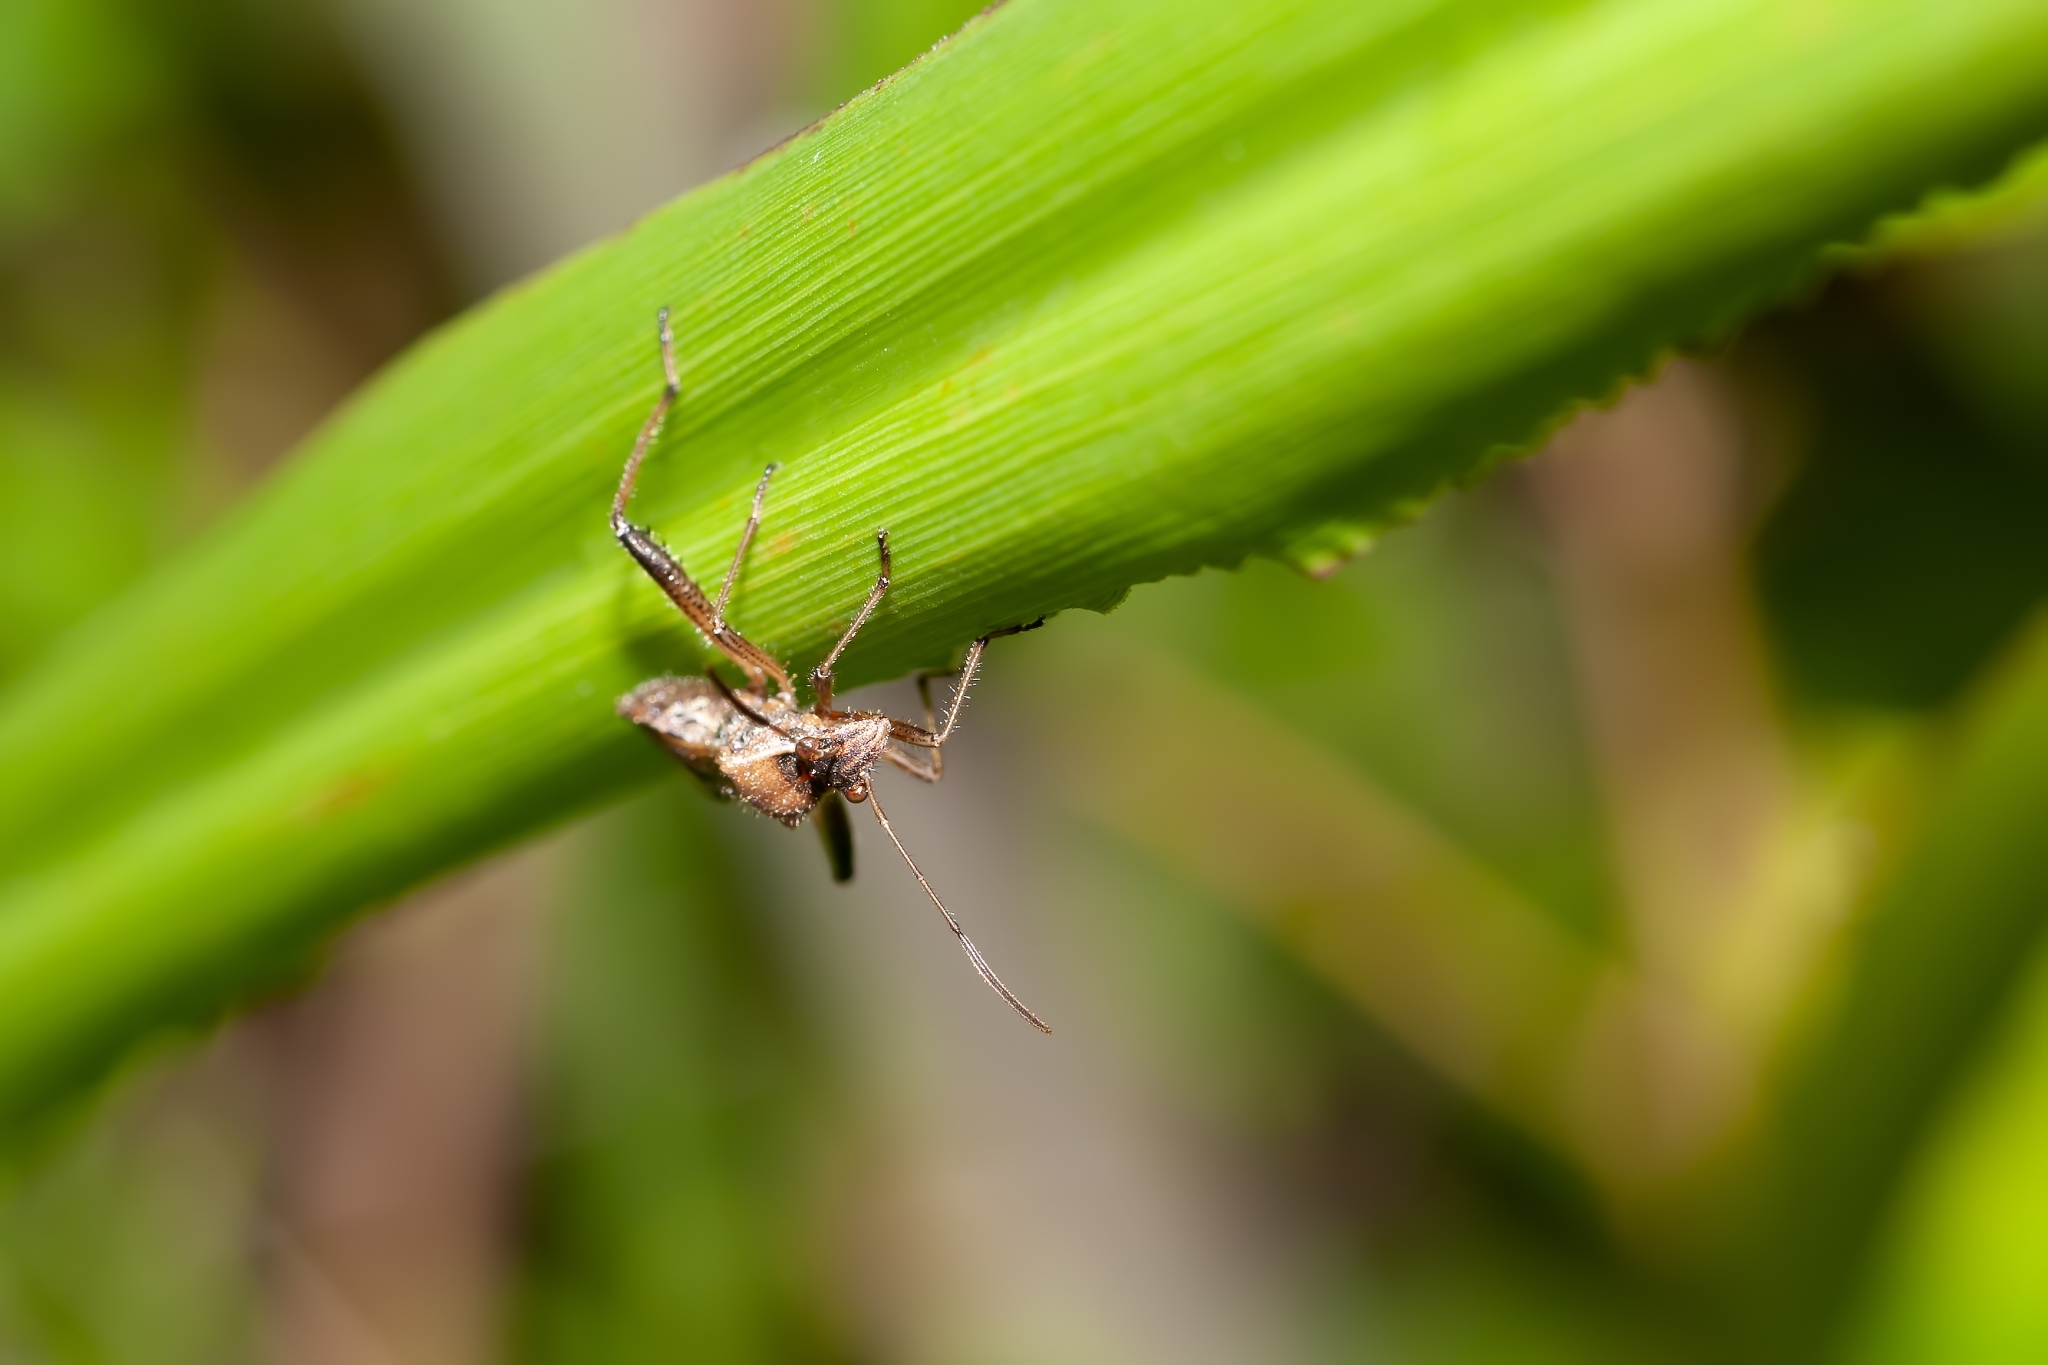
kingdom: Animalia
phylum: Arthropoda
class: Insecta
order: Hemiptera
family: Alydidae
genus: Alydus
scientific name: Alydus pilosulus
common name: Broad-headed bug
